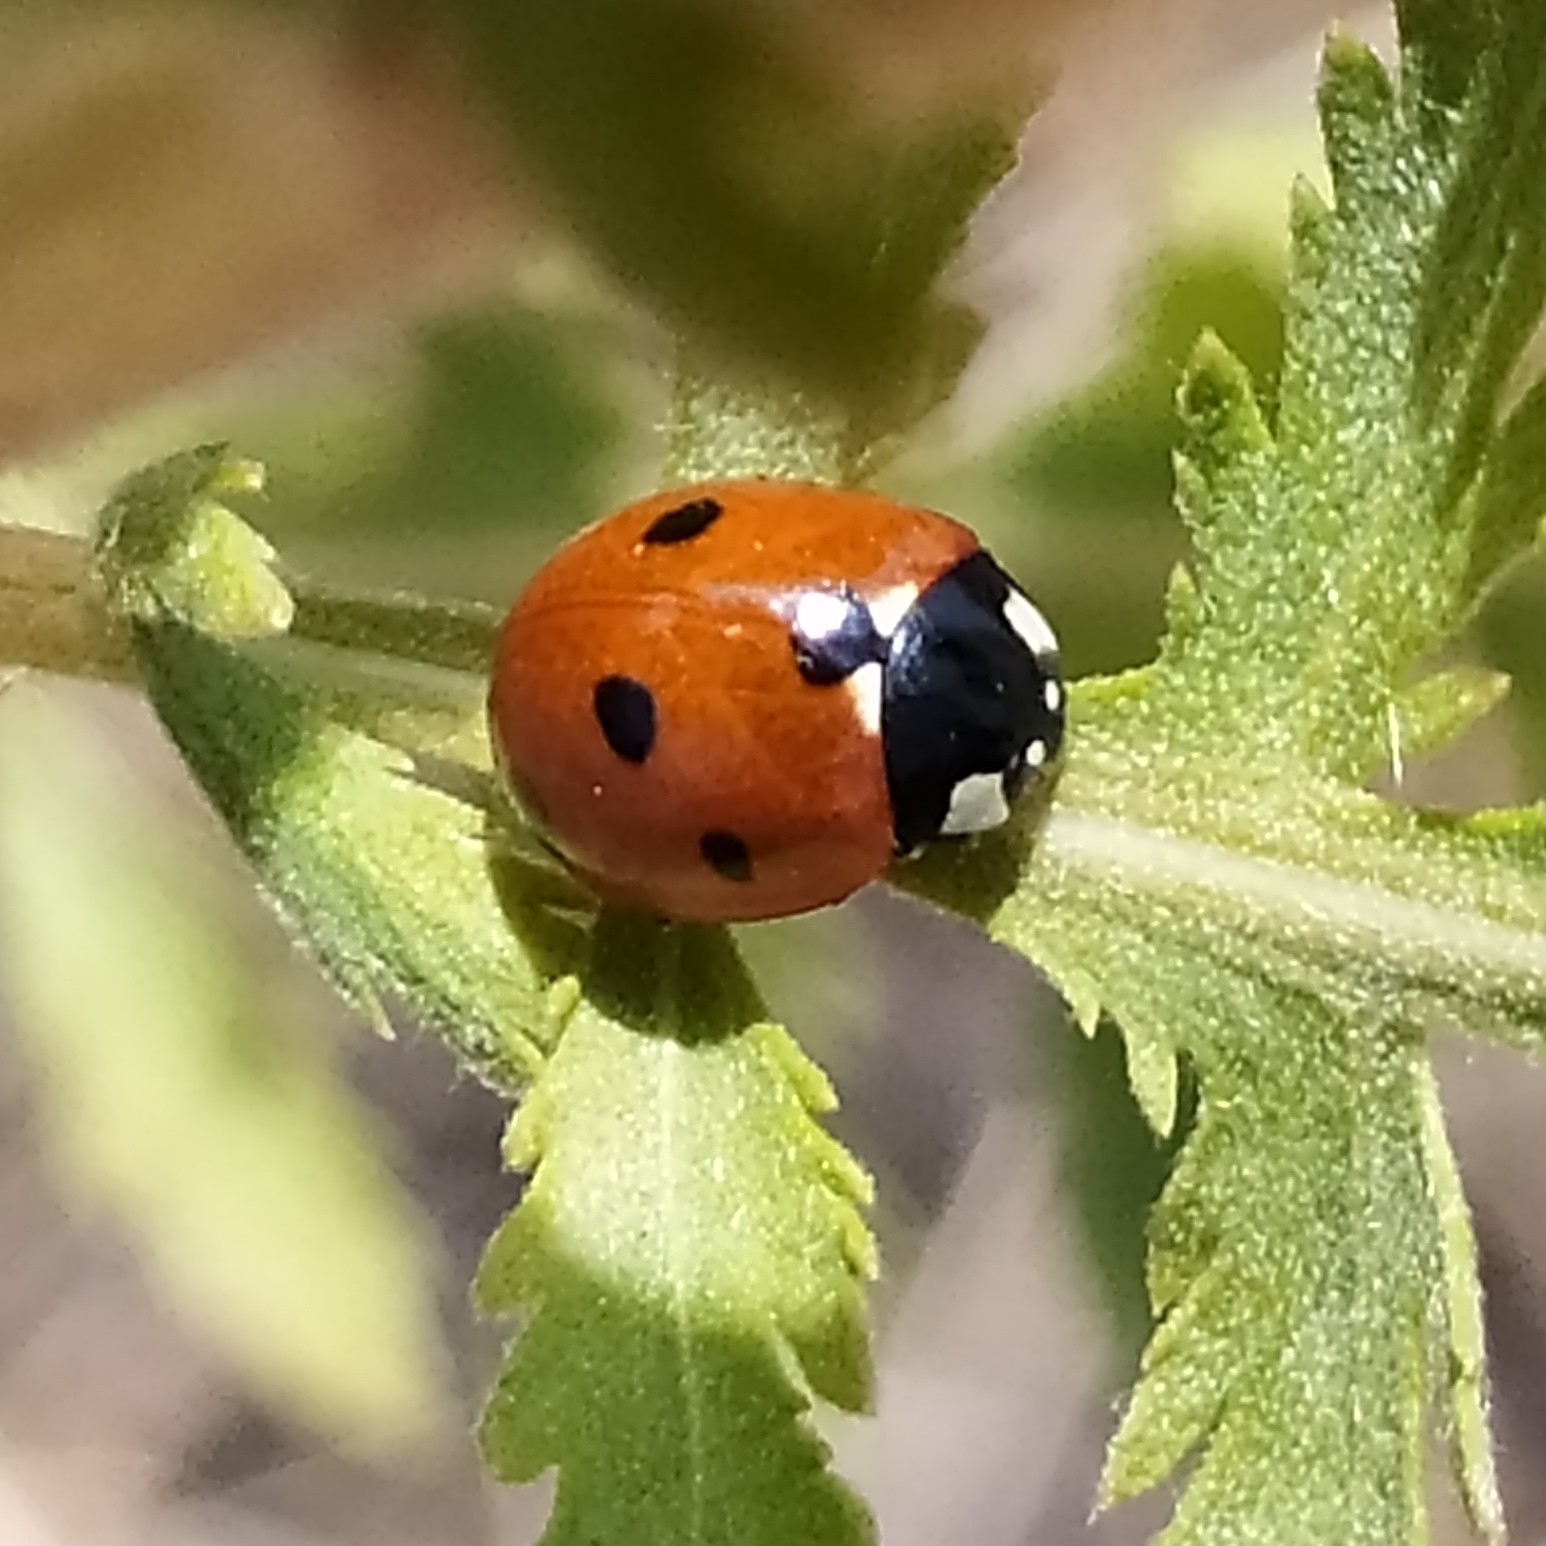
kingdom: Animalia
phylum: Arthropoda
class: Insecta
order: Coleoptera
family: Coccinellidae
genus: Coccinella
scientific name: Coccinella septempunctata
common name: Sevenspotted lady beetle
